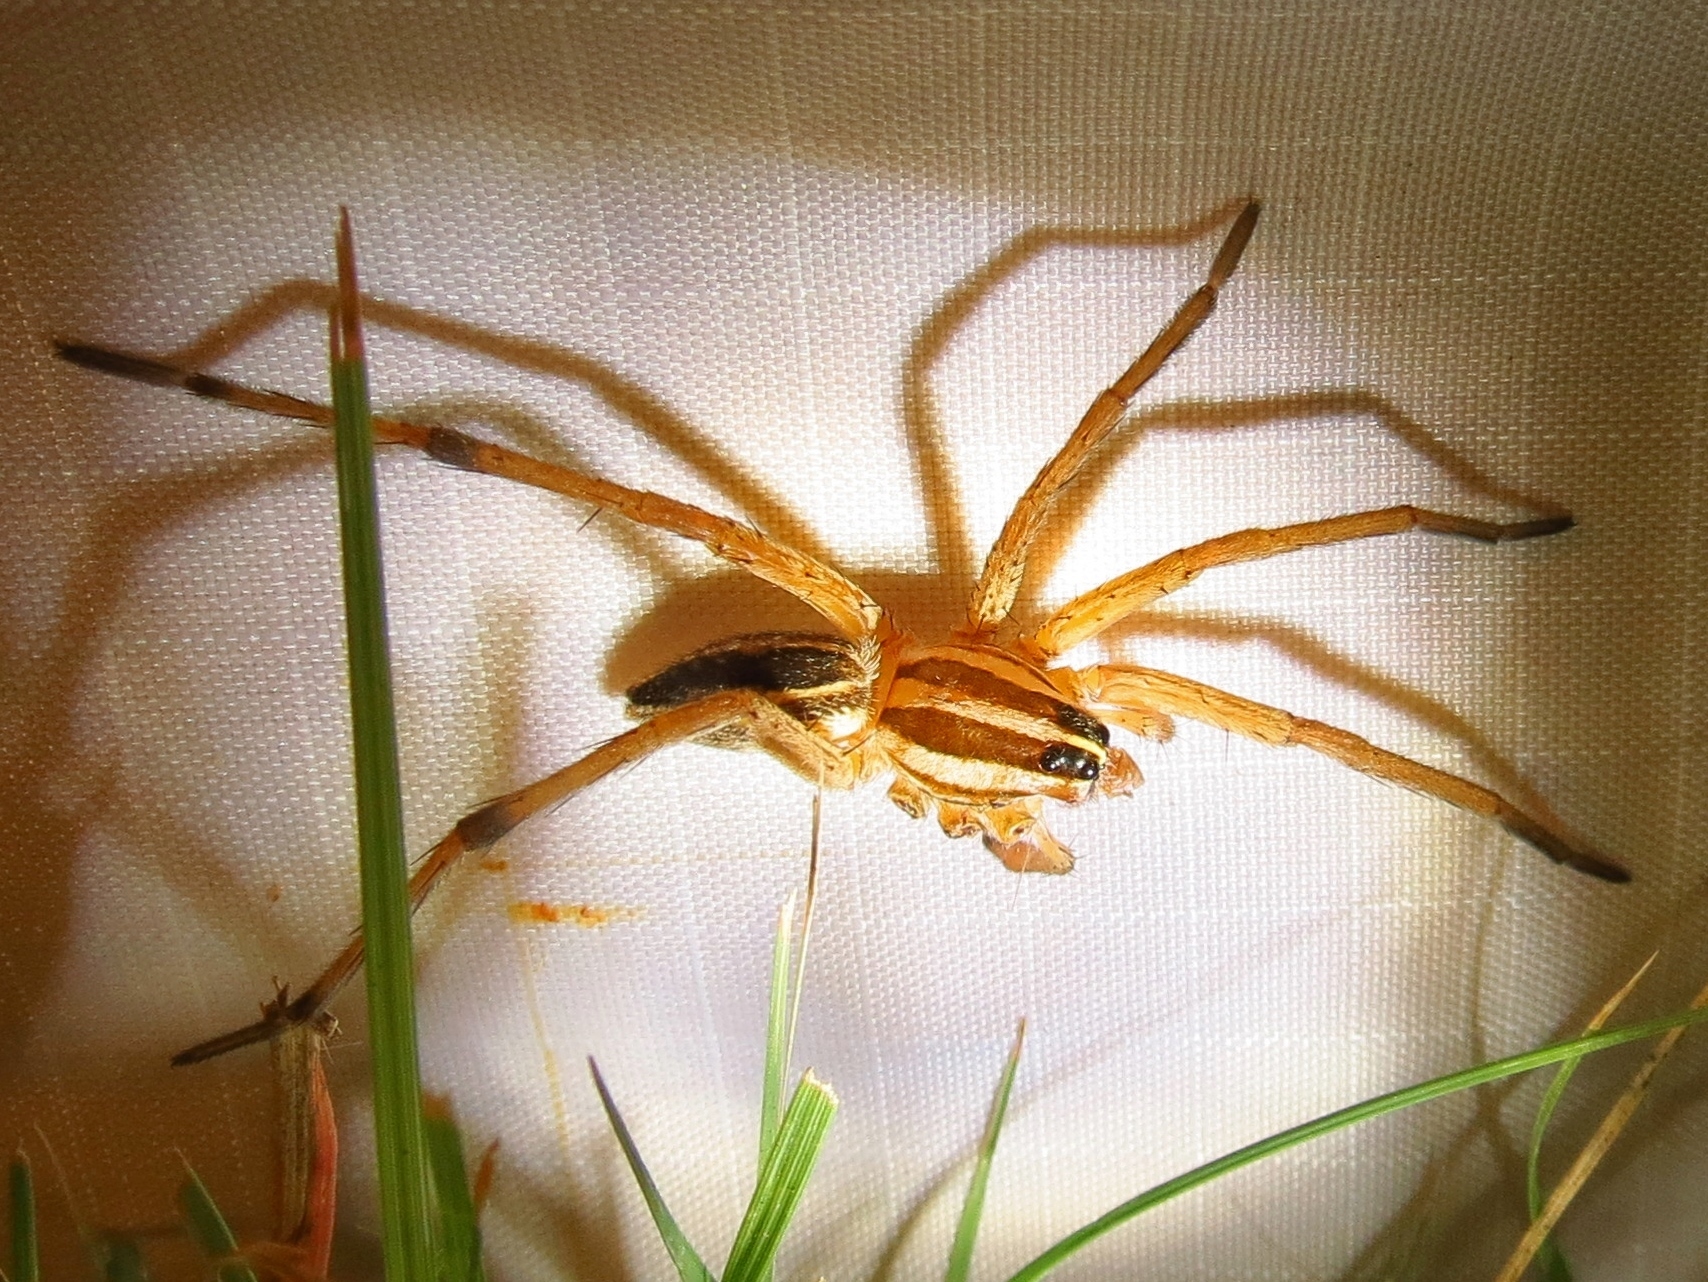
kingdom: Animalia
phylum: Arthropoda
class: Arachnida
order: Araneae
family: Lycosidae
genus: Rabidosa
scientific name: Rabidosa rabida
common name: Rabid wolf spider
